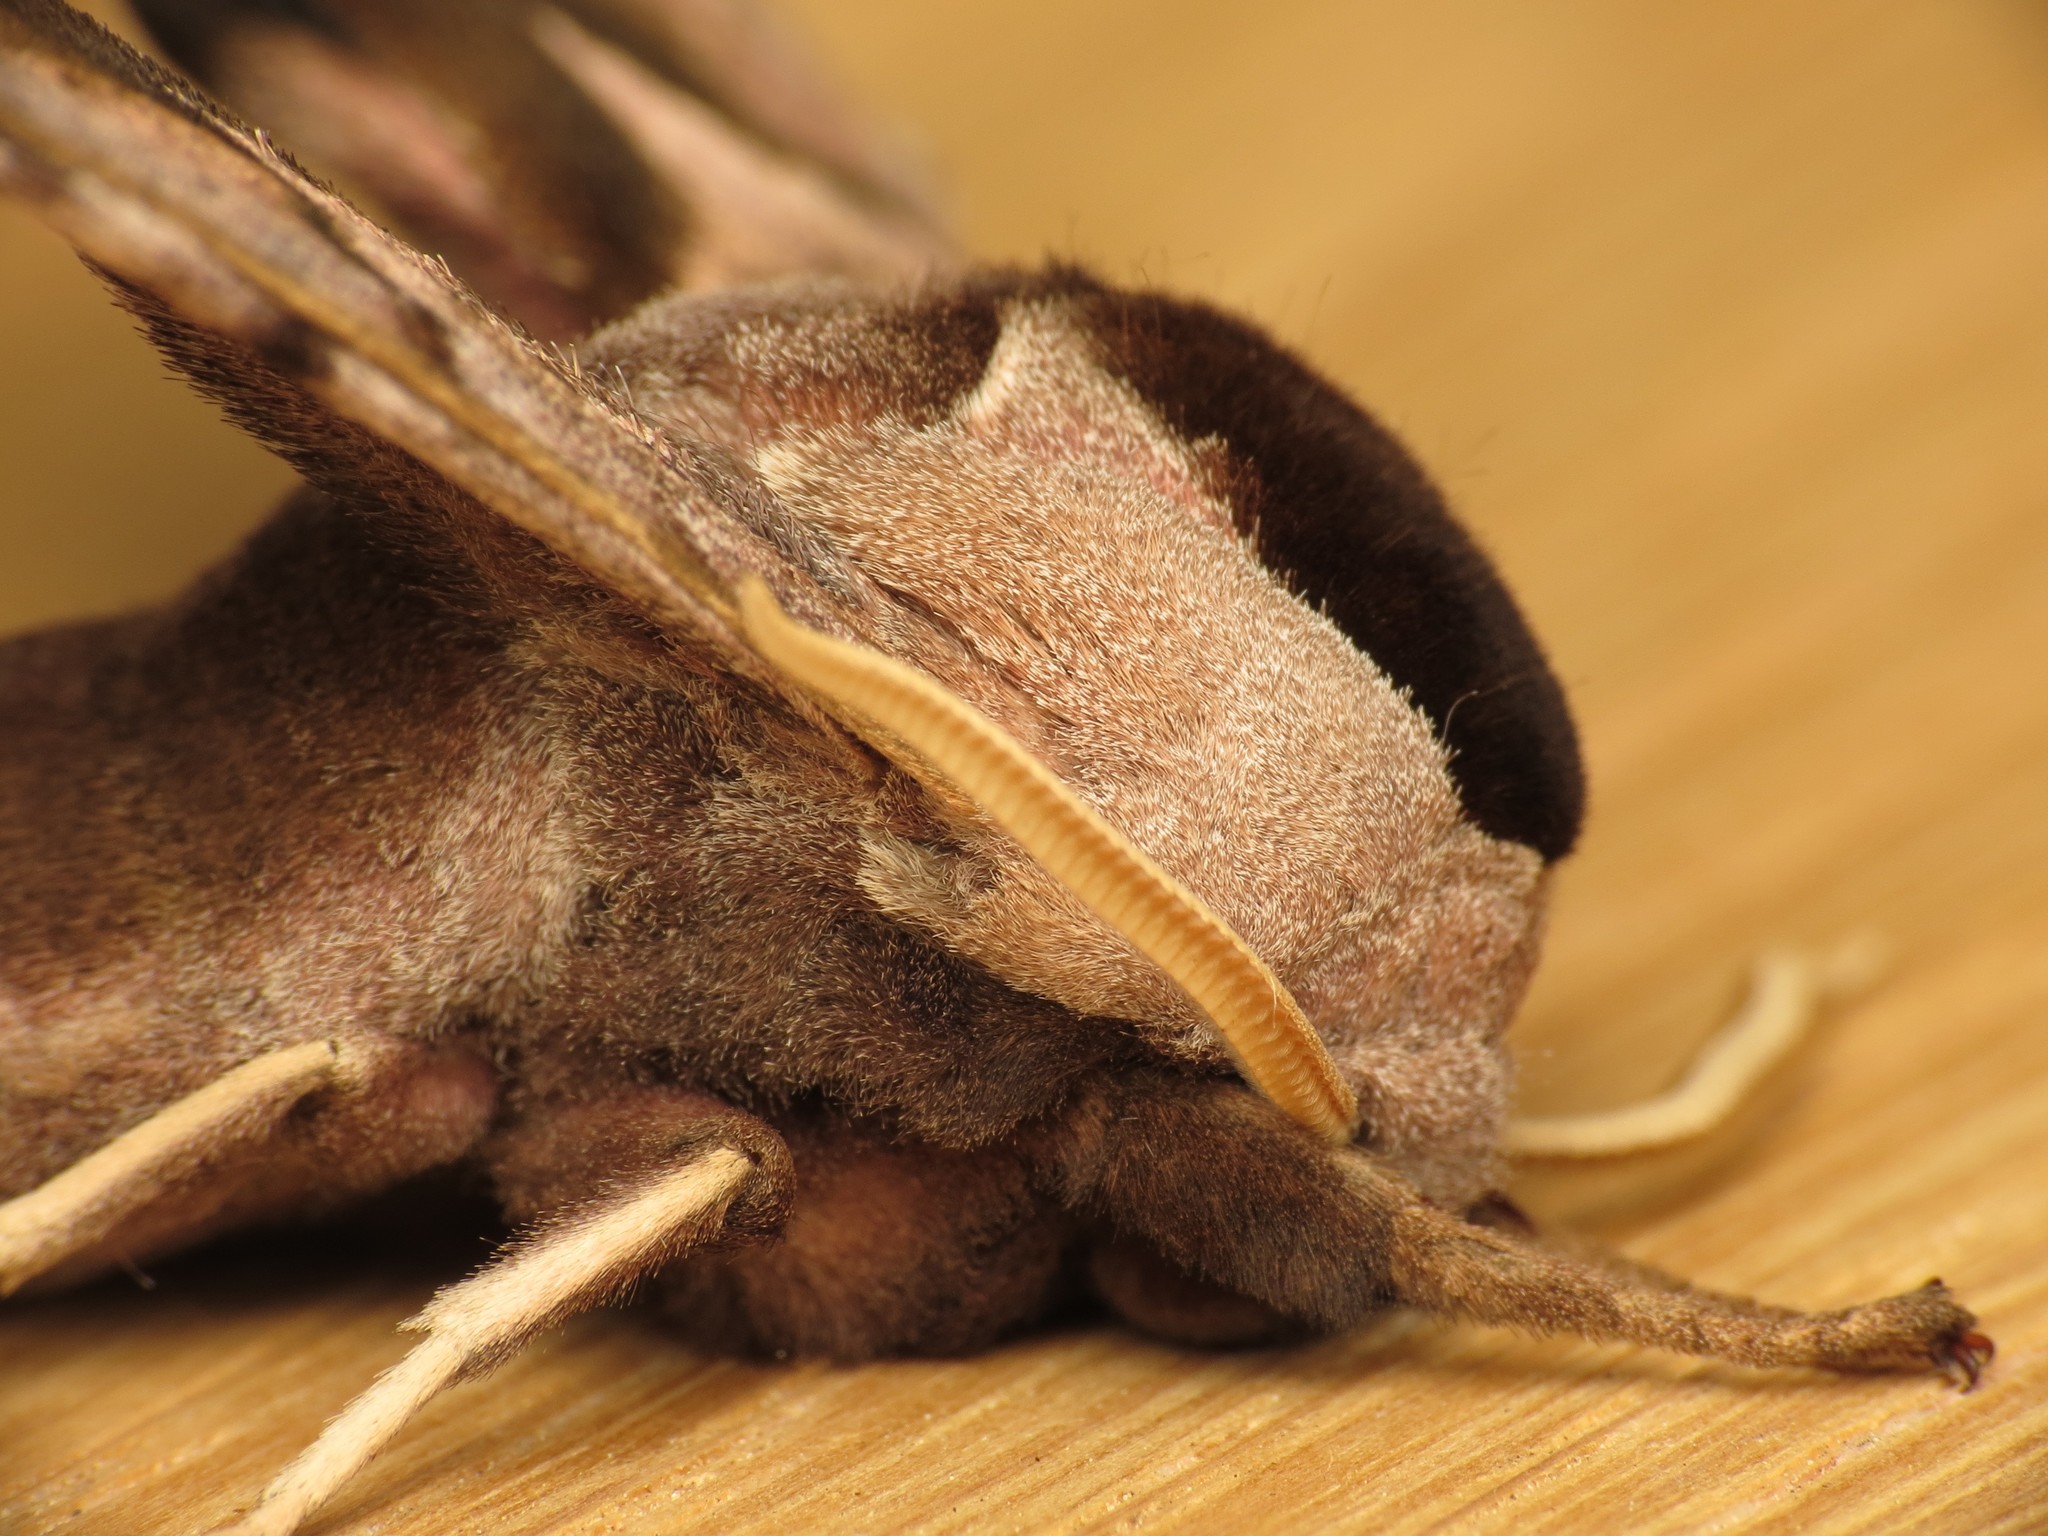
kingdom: Animalia
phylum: Arthropoda
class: Insecta
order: Lepidoptera
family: Sphingidae
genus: Smerinthus
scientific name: Smerinthus ocellata
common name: Eyed hawk-moth
